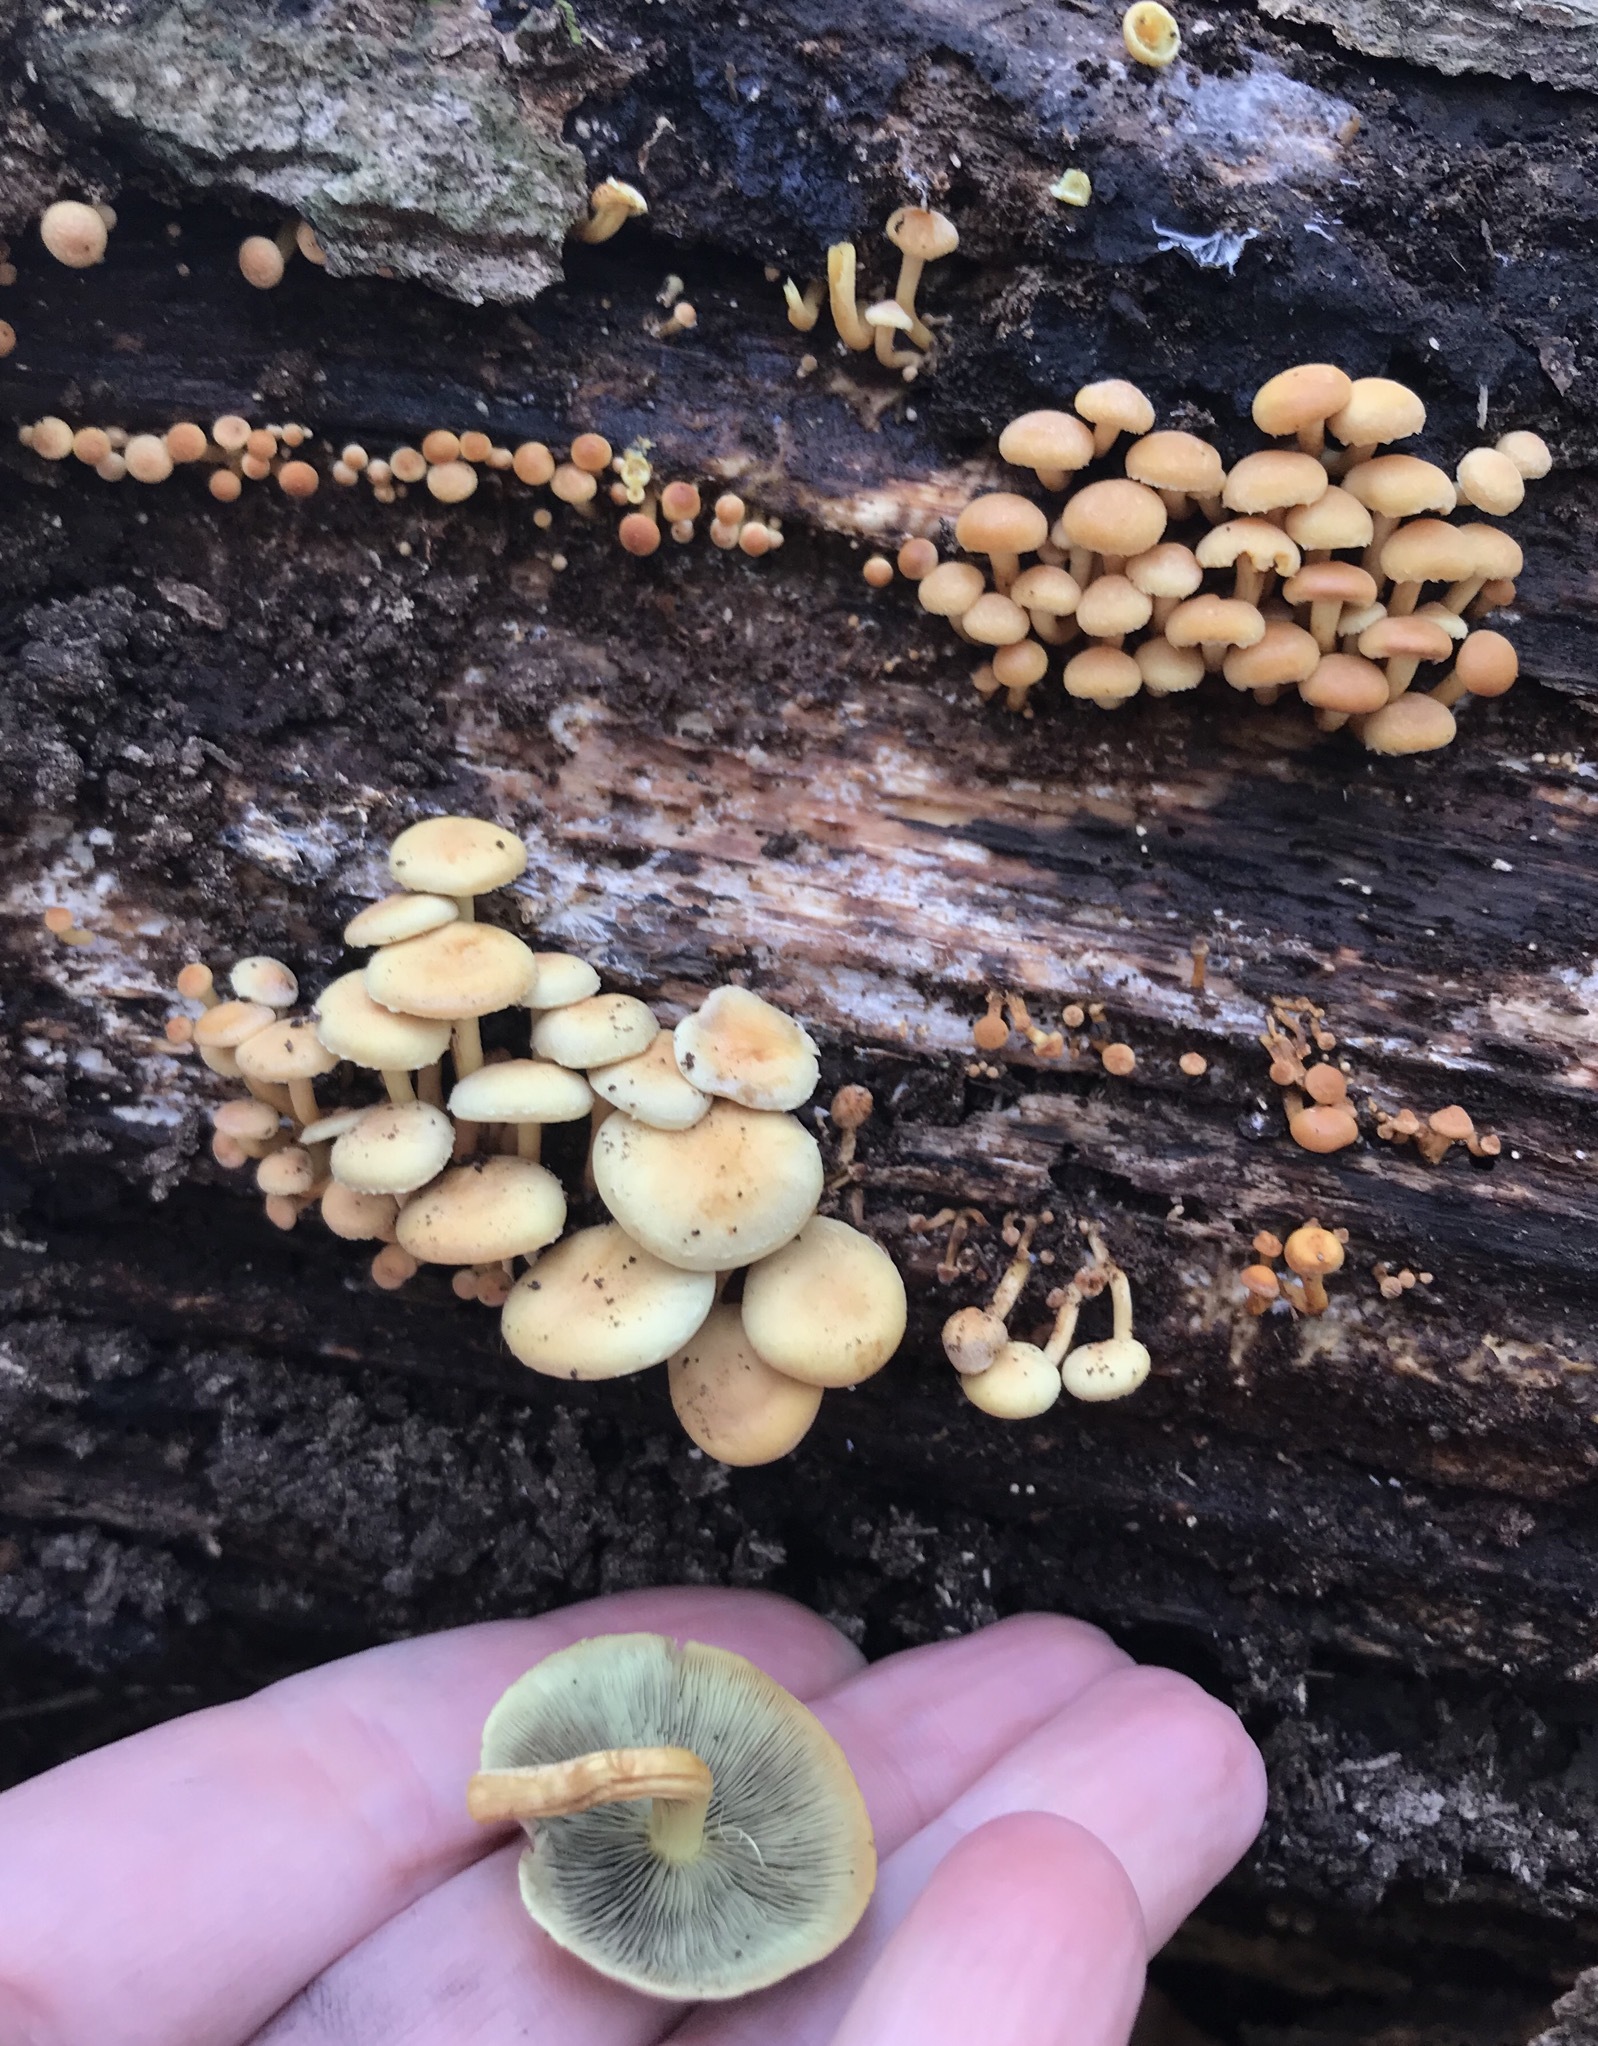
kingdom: Fungi
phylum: Basidiomycota
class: Agaricomycetes
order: Agaricales
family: Strophariaceae
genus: Hypholoma
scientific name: Hypholoma fasciculare
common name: Sulphur tuft
